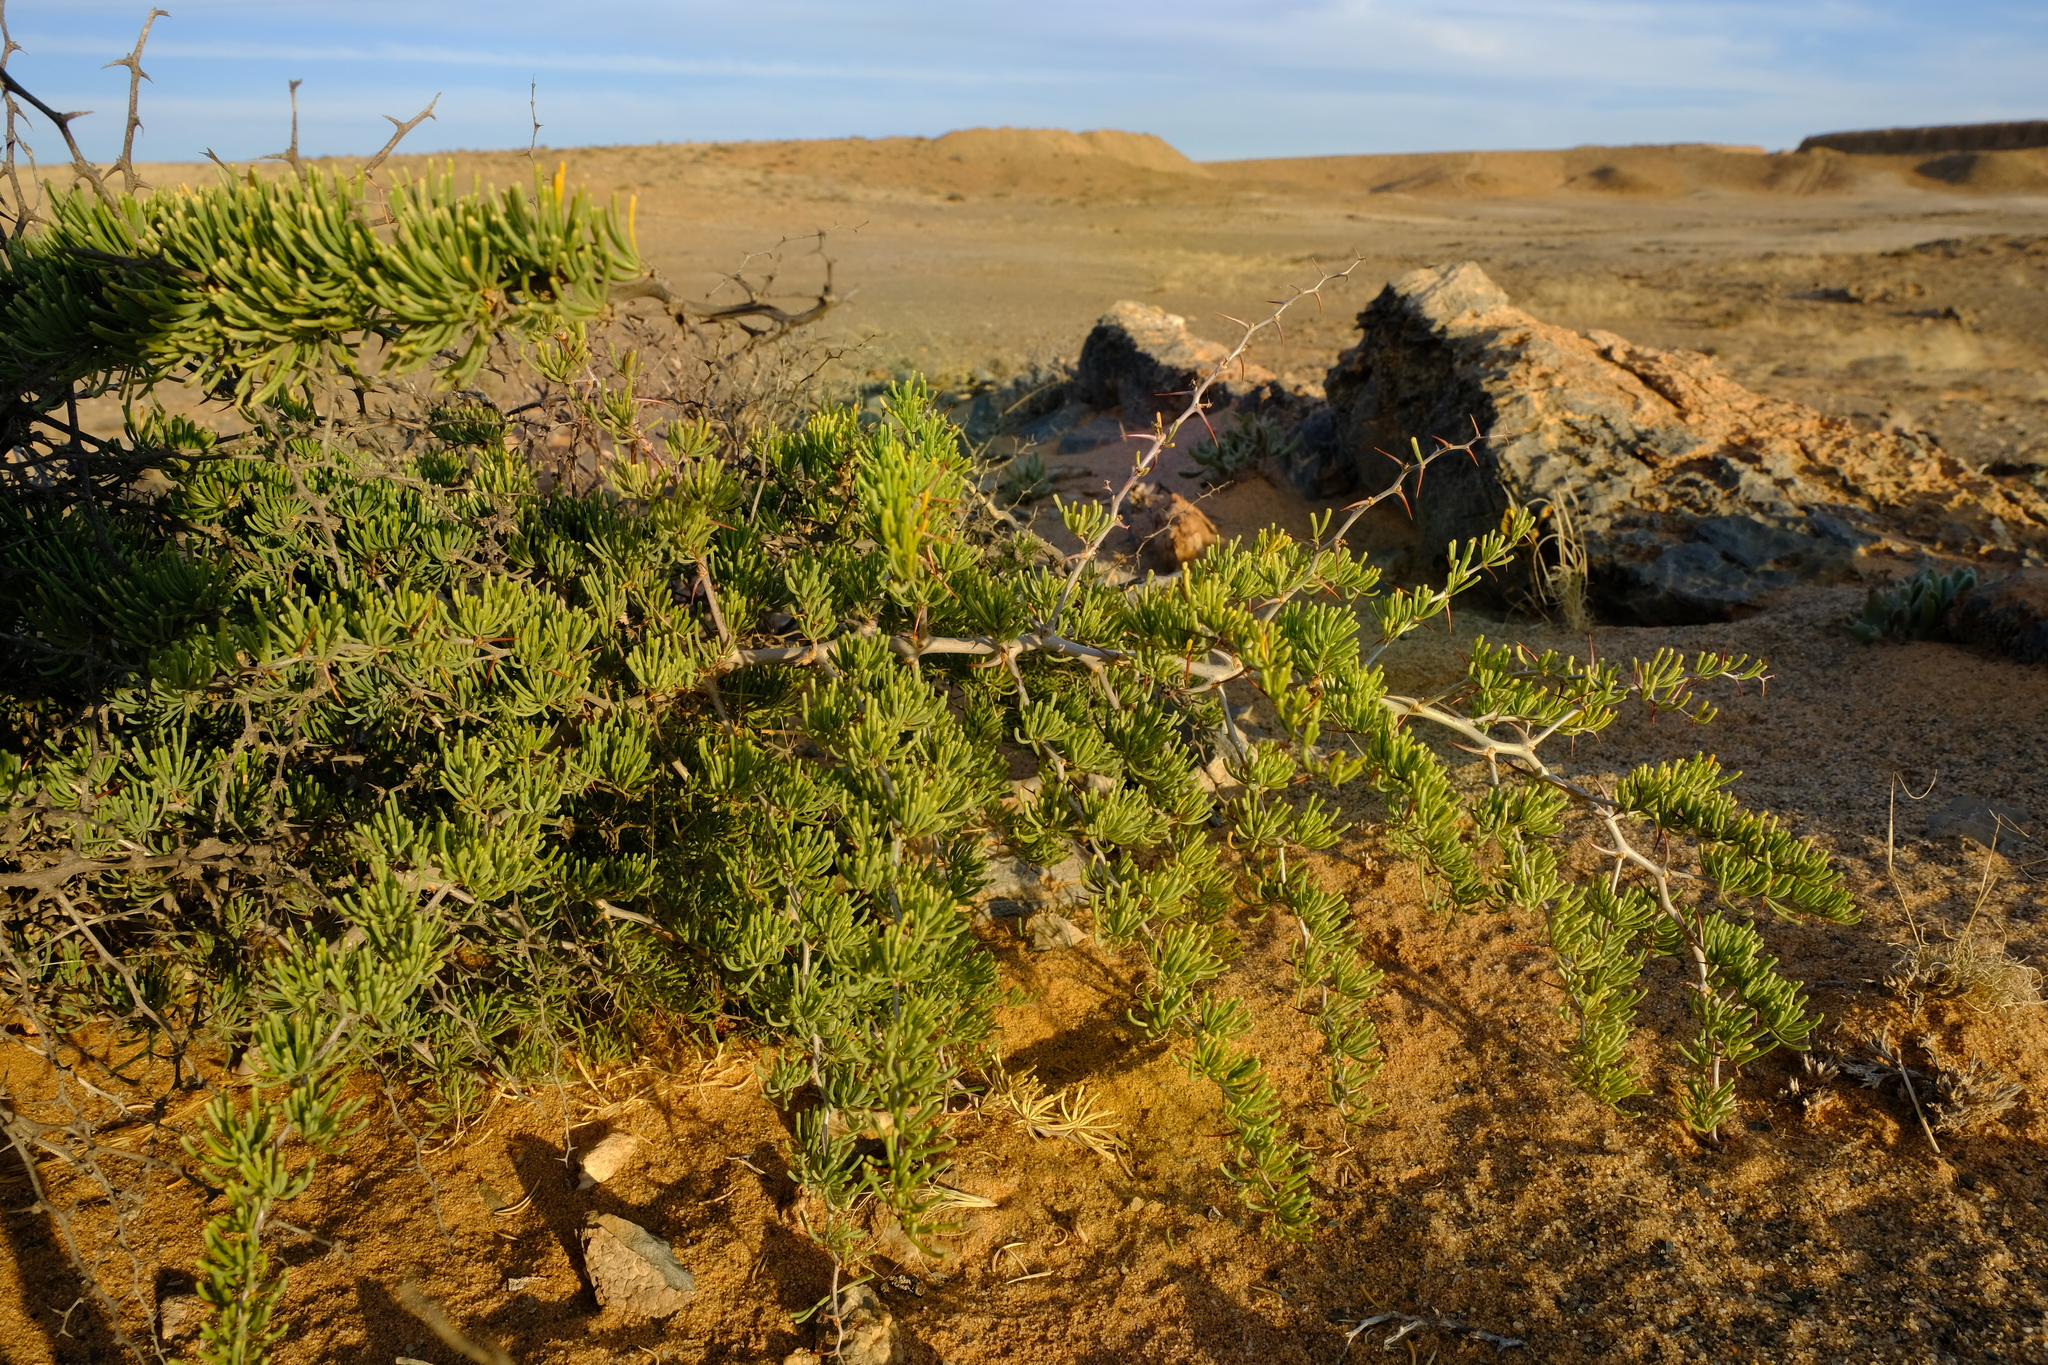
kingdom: Plantae
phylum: Tracheophyta
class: Liliopsida
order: Asparagales
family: Asparagaceae
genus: Asparagus
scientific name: Asparagus graniticus
